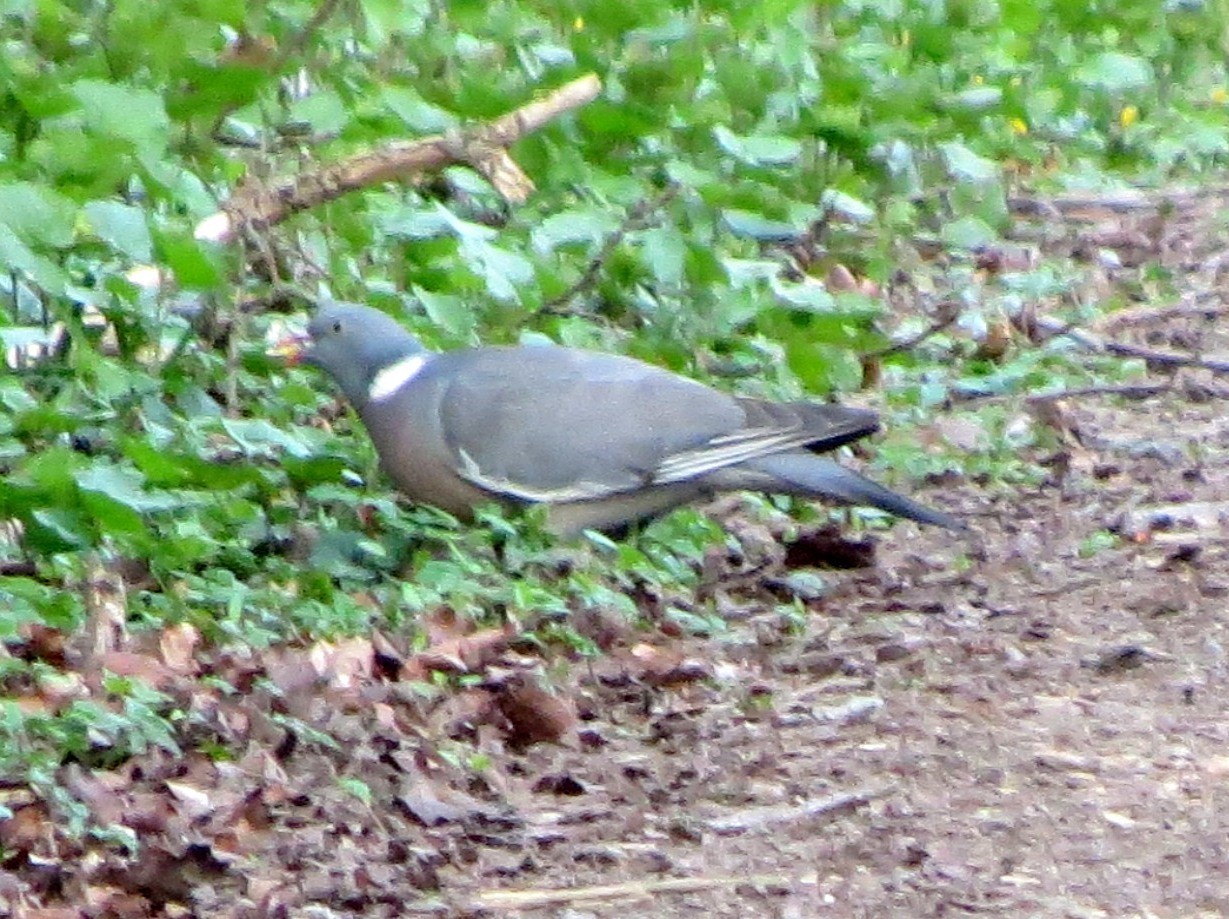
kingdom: Animalia
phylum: Chordata
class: Aves
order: Columbiformes
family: Columbidae
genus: Columba
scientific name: Columba palumbus
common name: Common wood pigeon
